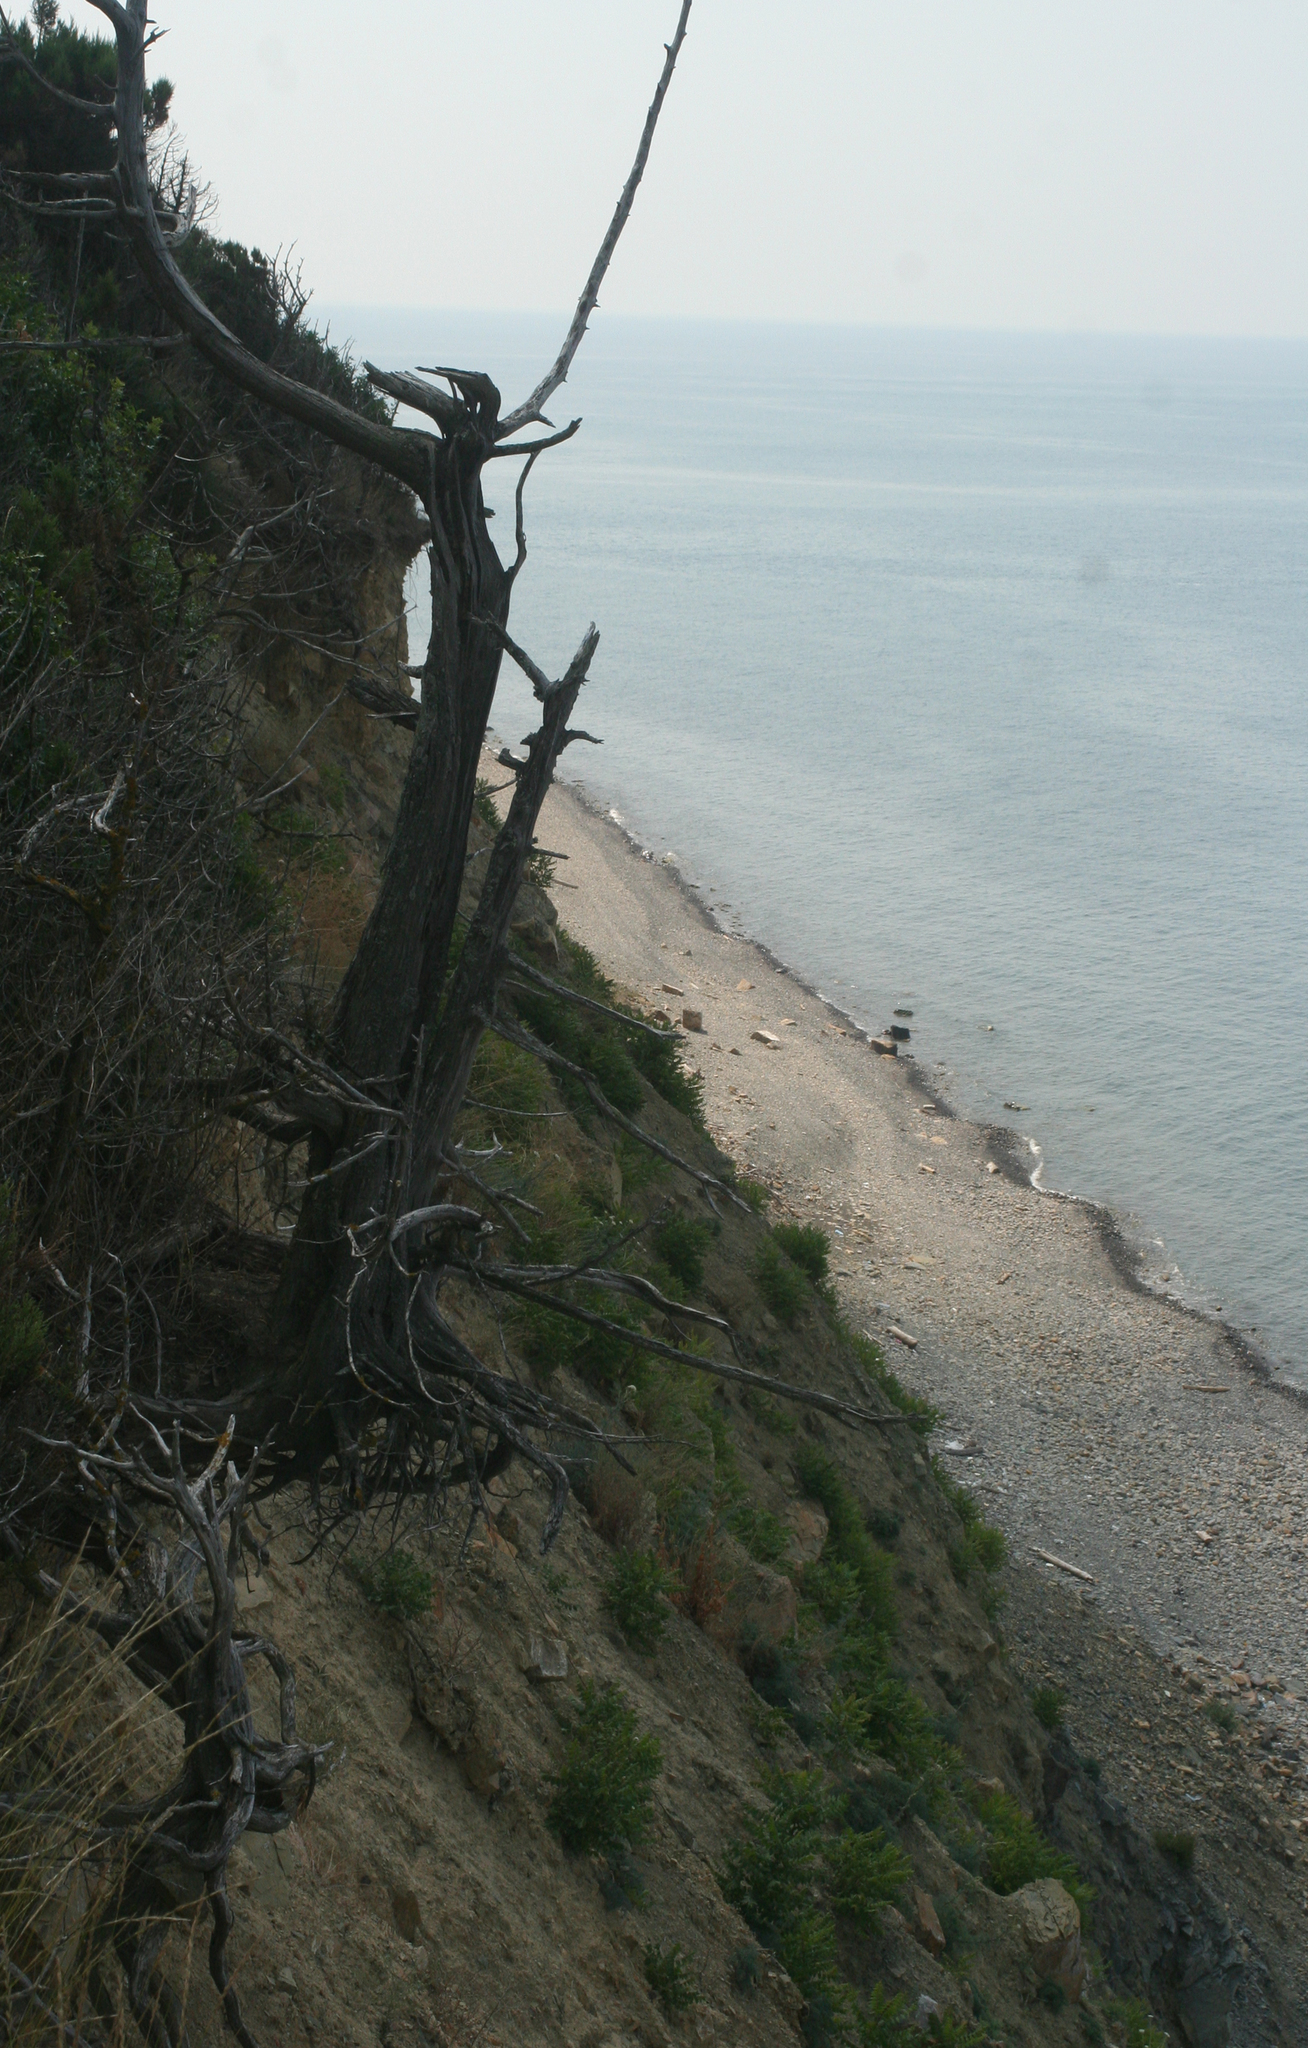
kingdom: Plantae
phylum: Tracheophyta
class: Pinopsida
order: Pinales
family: Cupressaceae
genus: Juniperus
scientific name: Juniperus excelsa
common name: Crimean juniper
